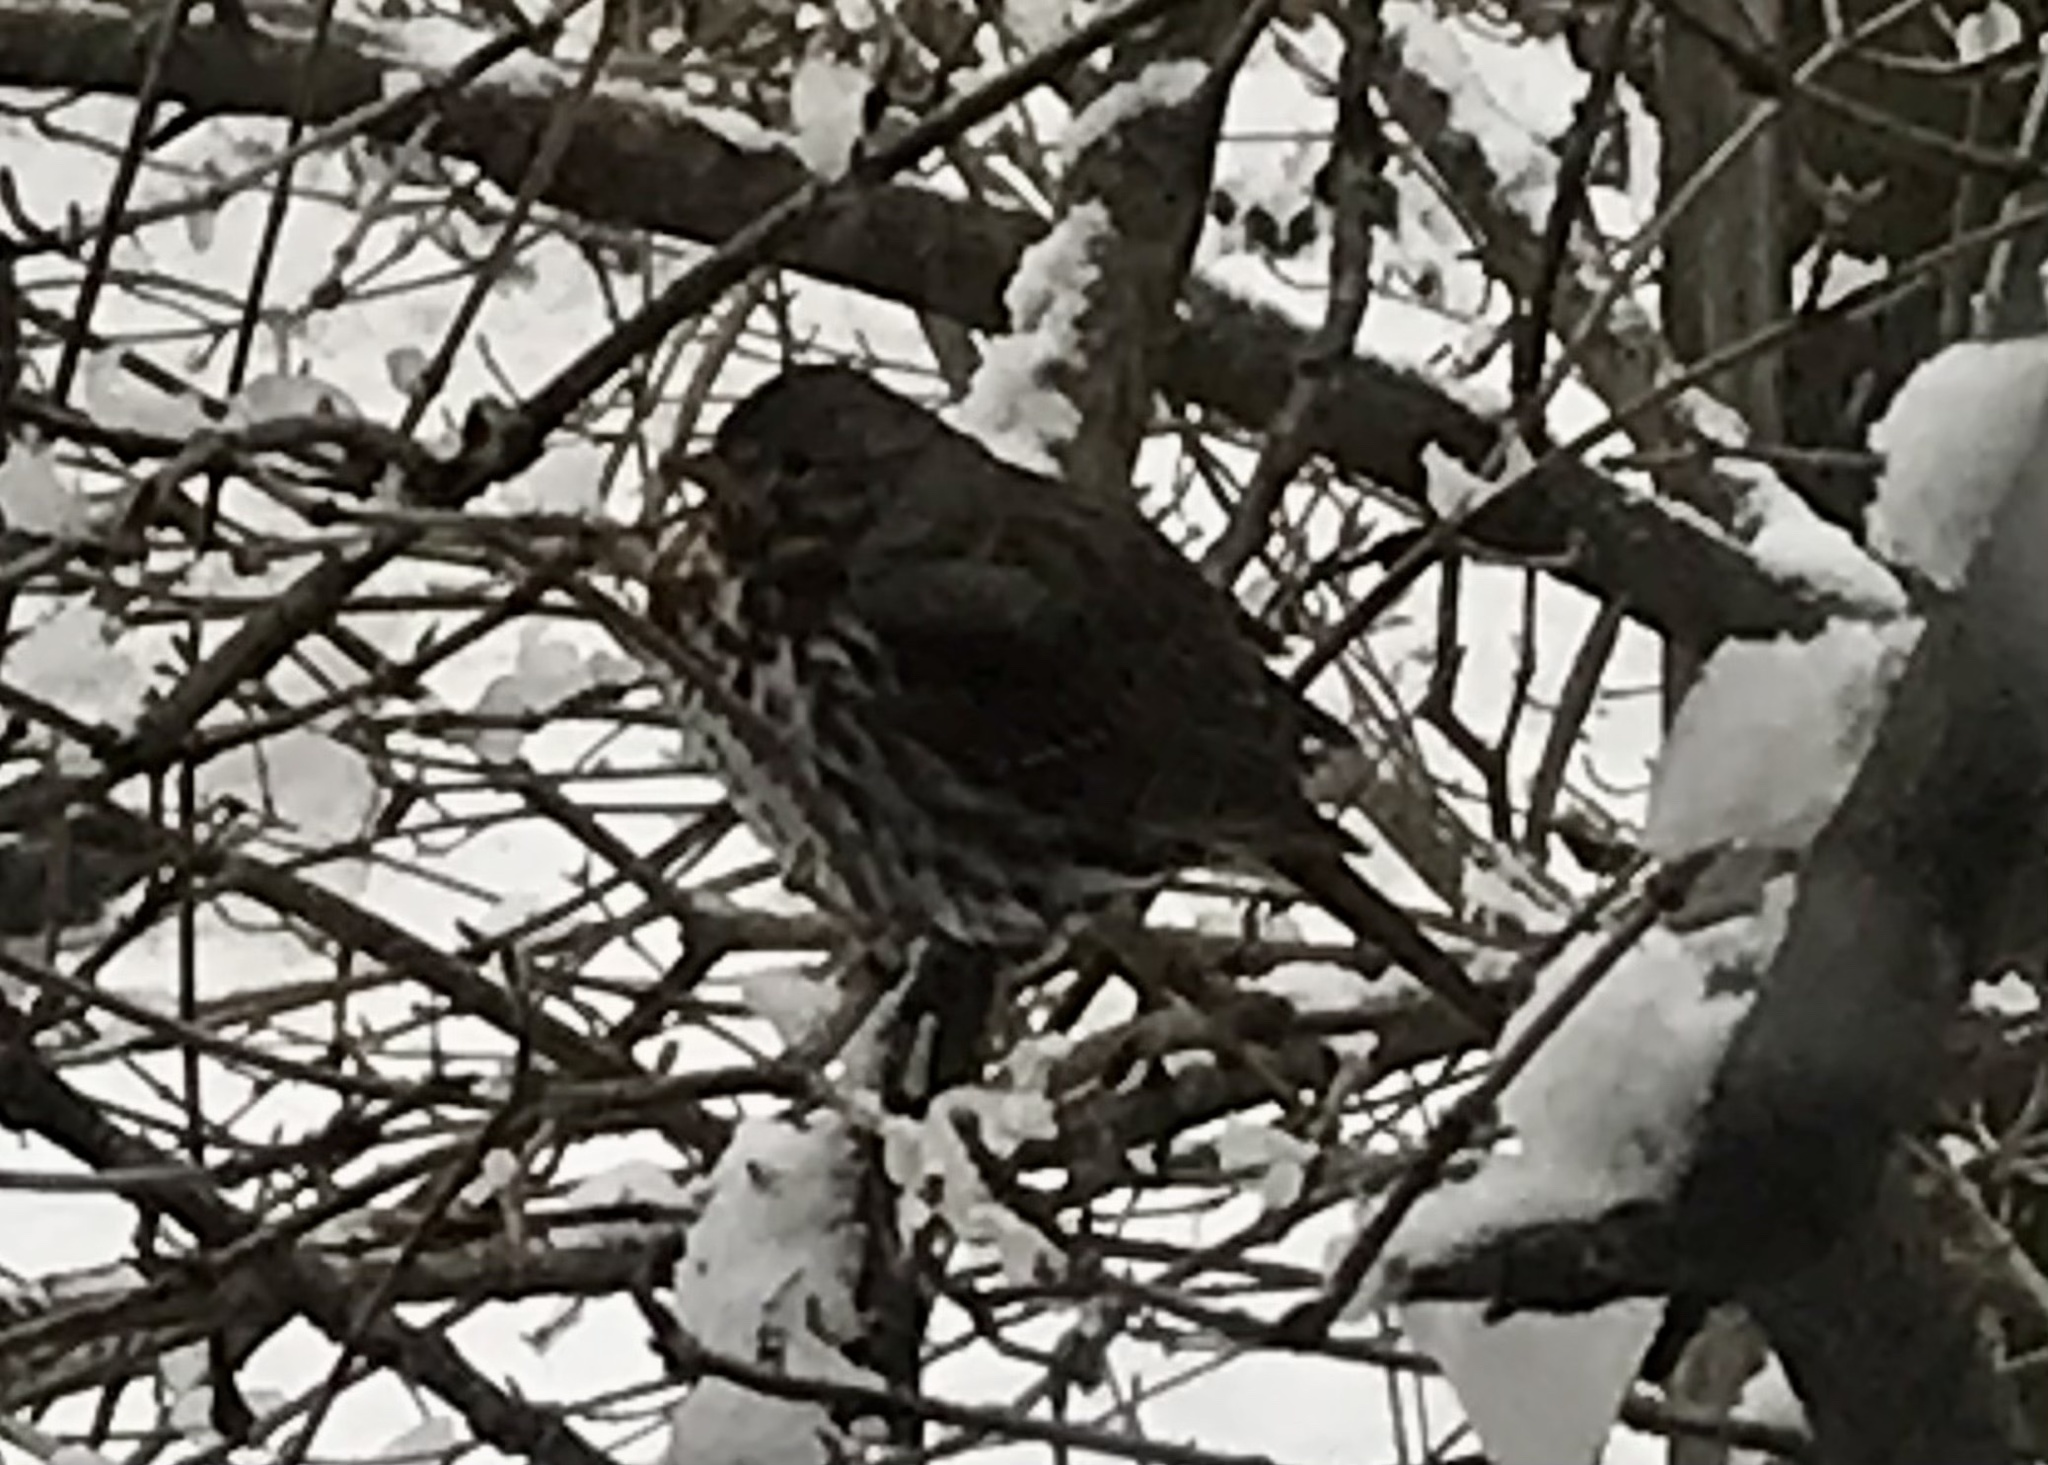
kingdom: Animalia
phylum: Chordata
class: Aves
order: Passeriformes
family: Passerellidae
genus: Passerella
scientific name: Passerella iliaca
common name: Fox sparrow
